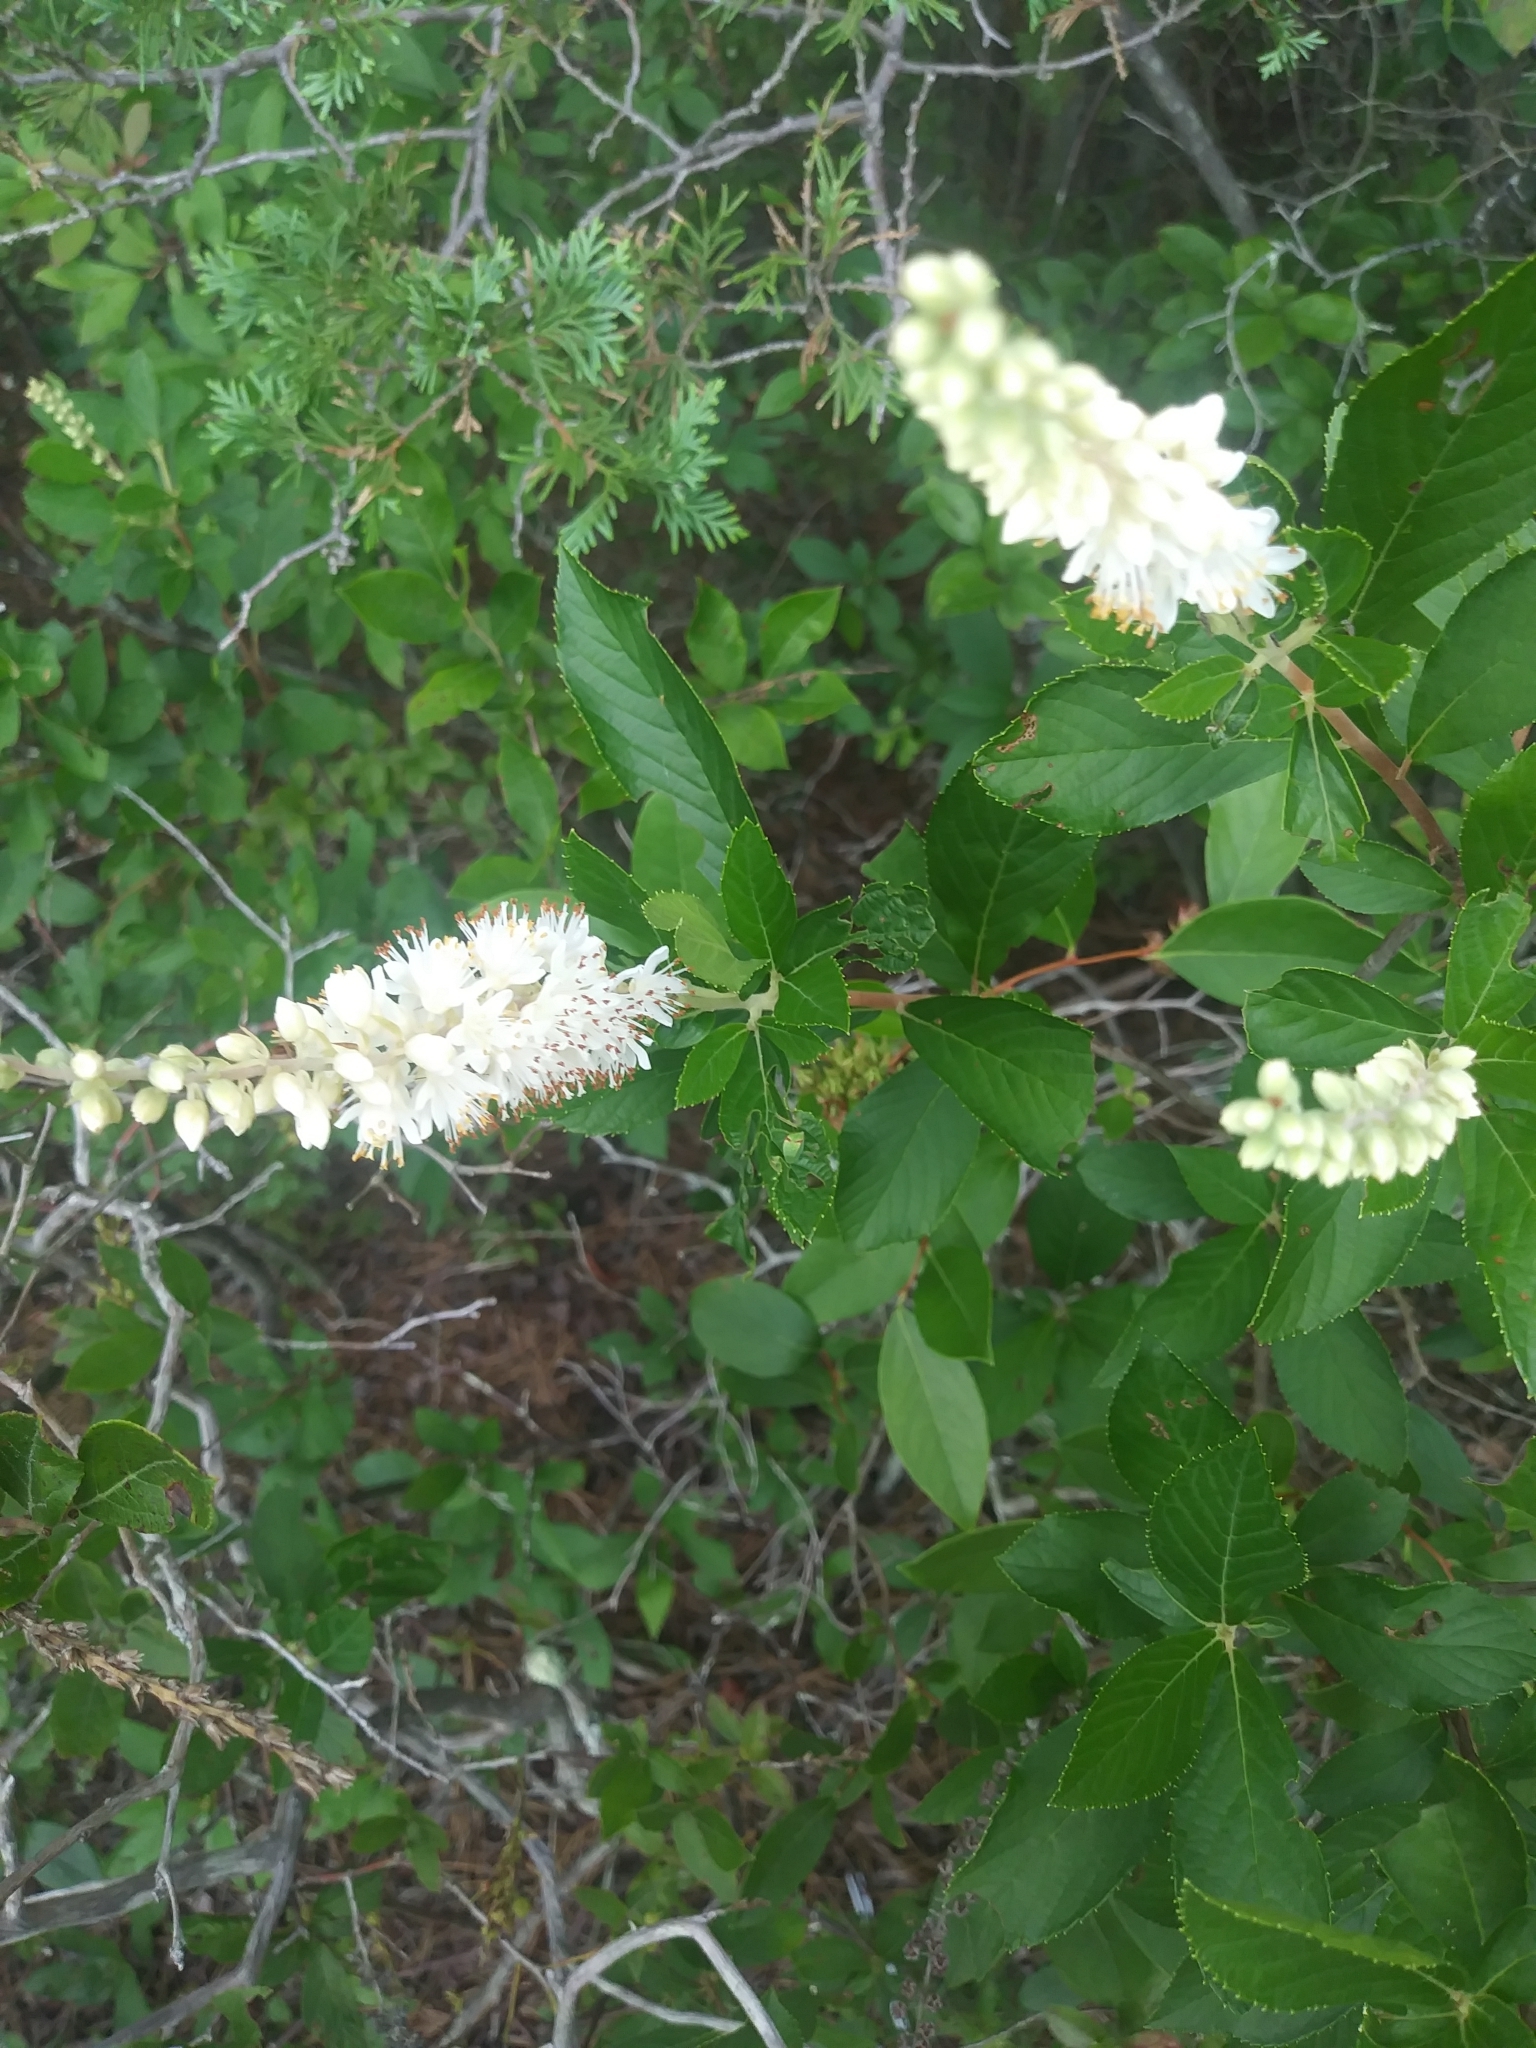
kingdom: Plantae
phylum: Tracheophyta
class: Magnoliopsida
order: Ericales
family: Clethraceae
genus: Clethra
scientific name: Clethra alnifolia
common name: Sweet pepperbush
